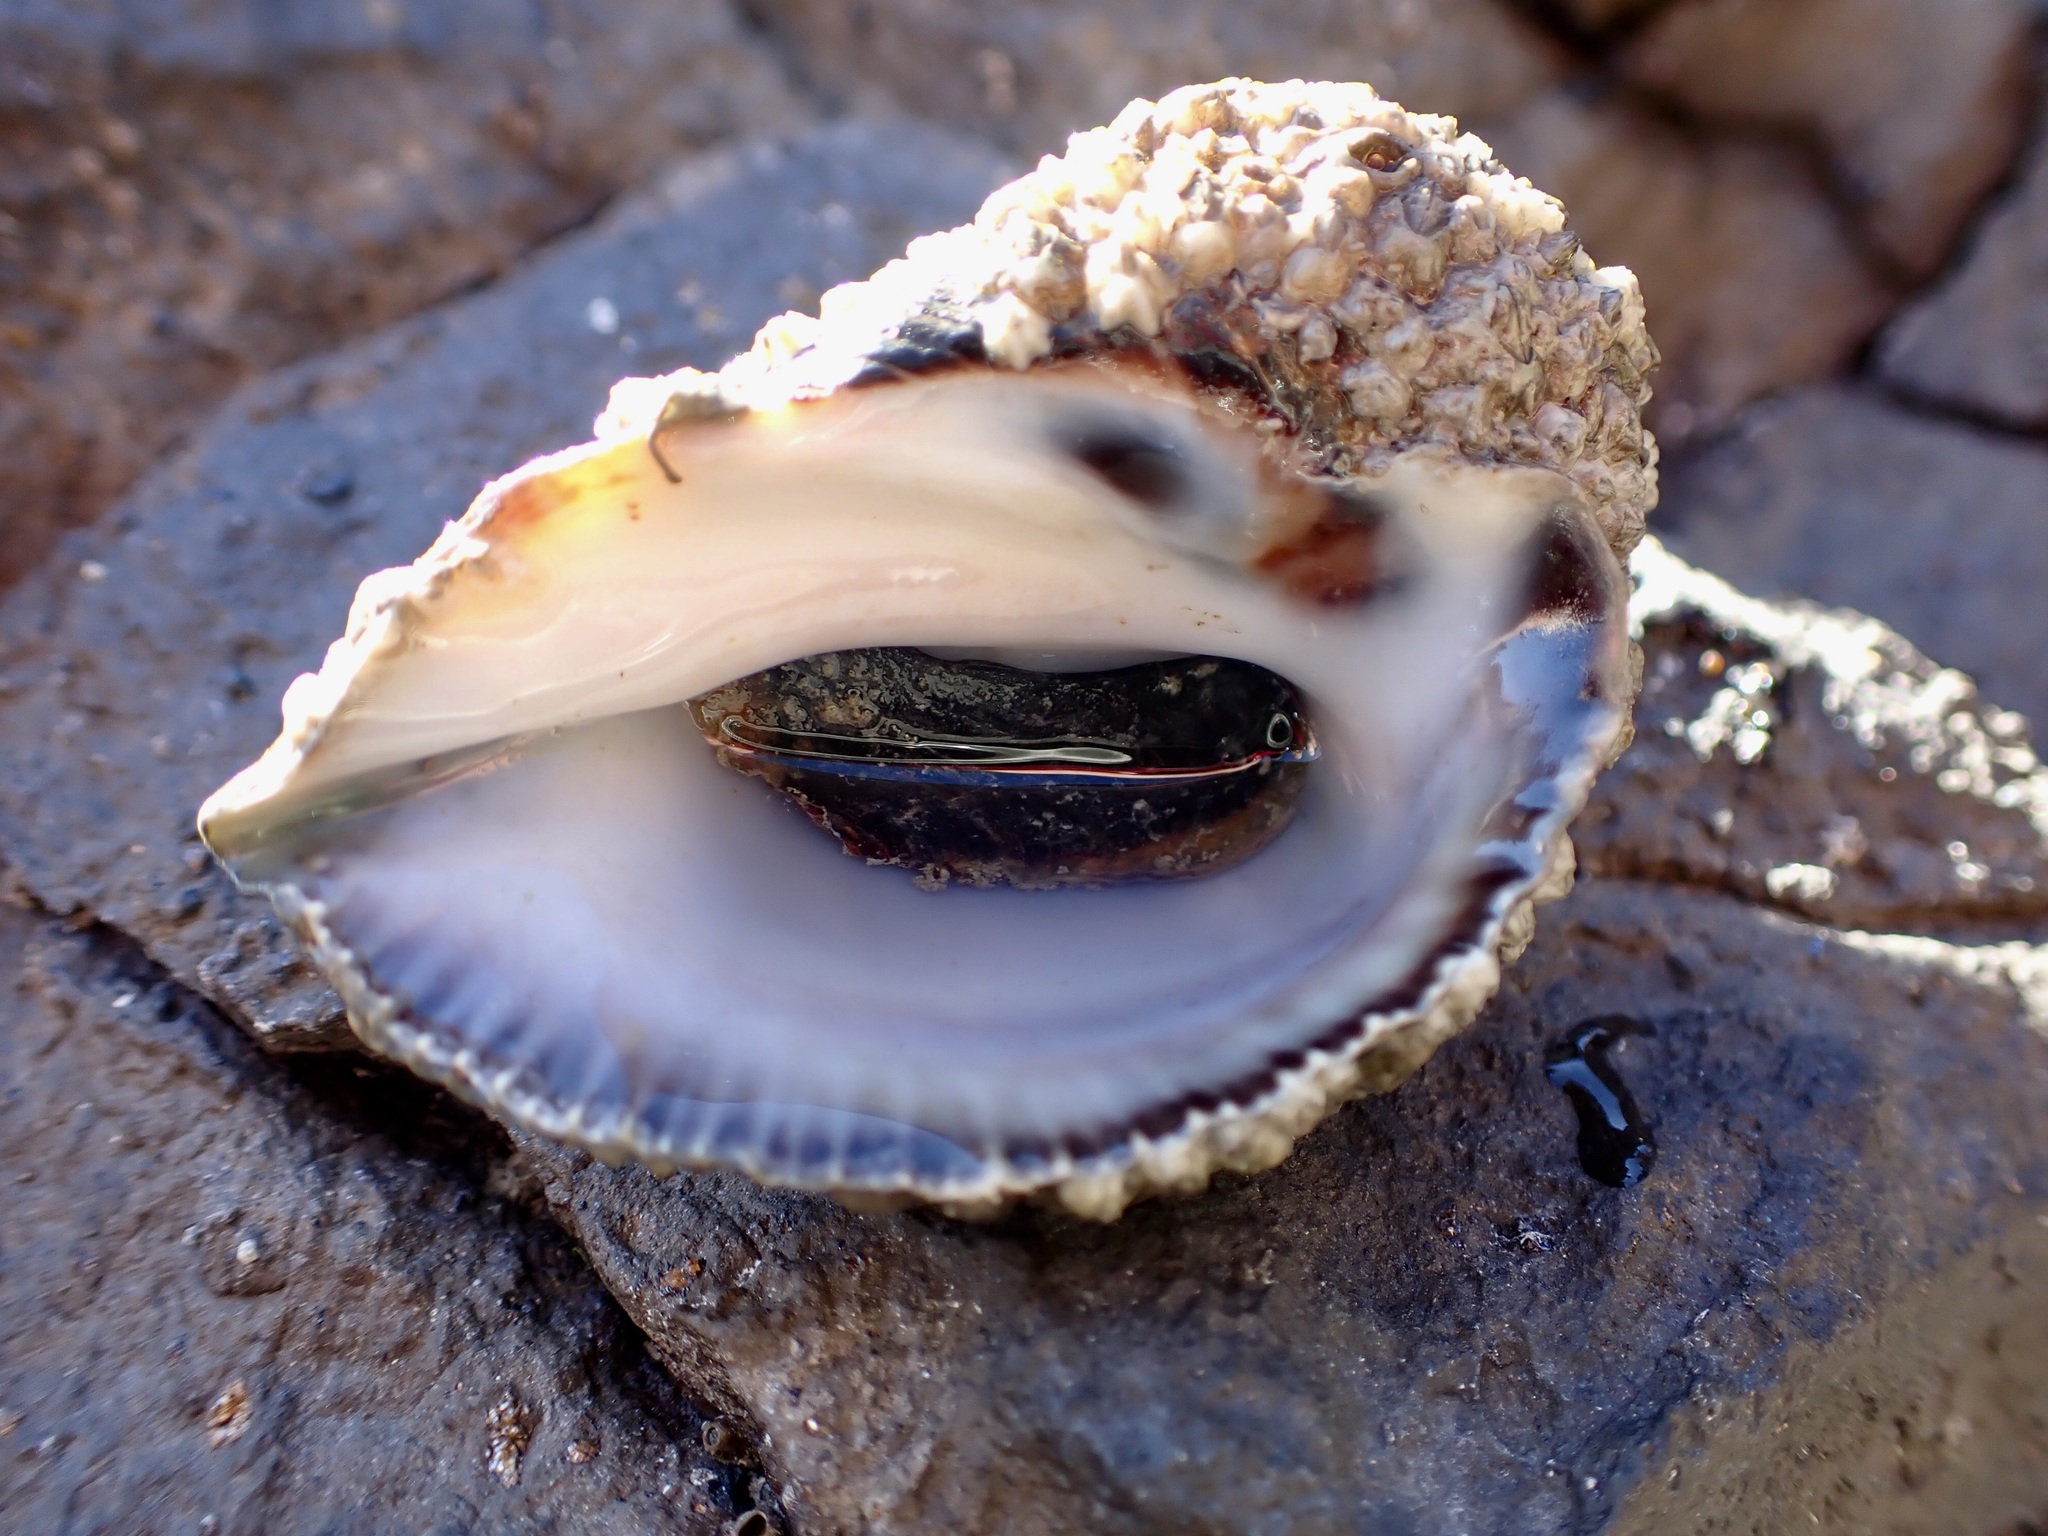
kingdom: Animalia
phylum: Mollusca
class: Gastropoda
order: Neogastropoda
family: Muricidae
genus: Haustrum
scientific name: Haustrum haustorium
